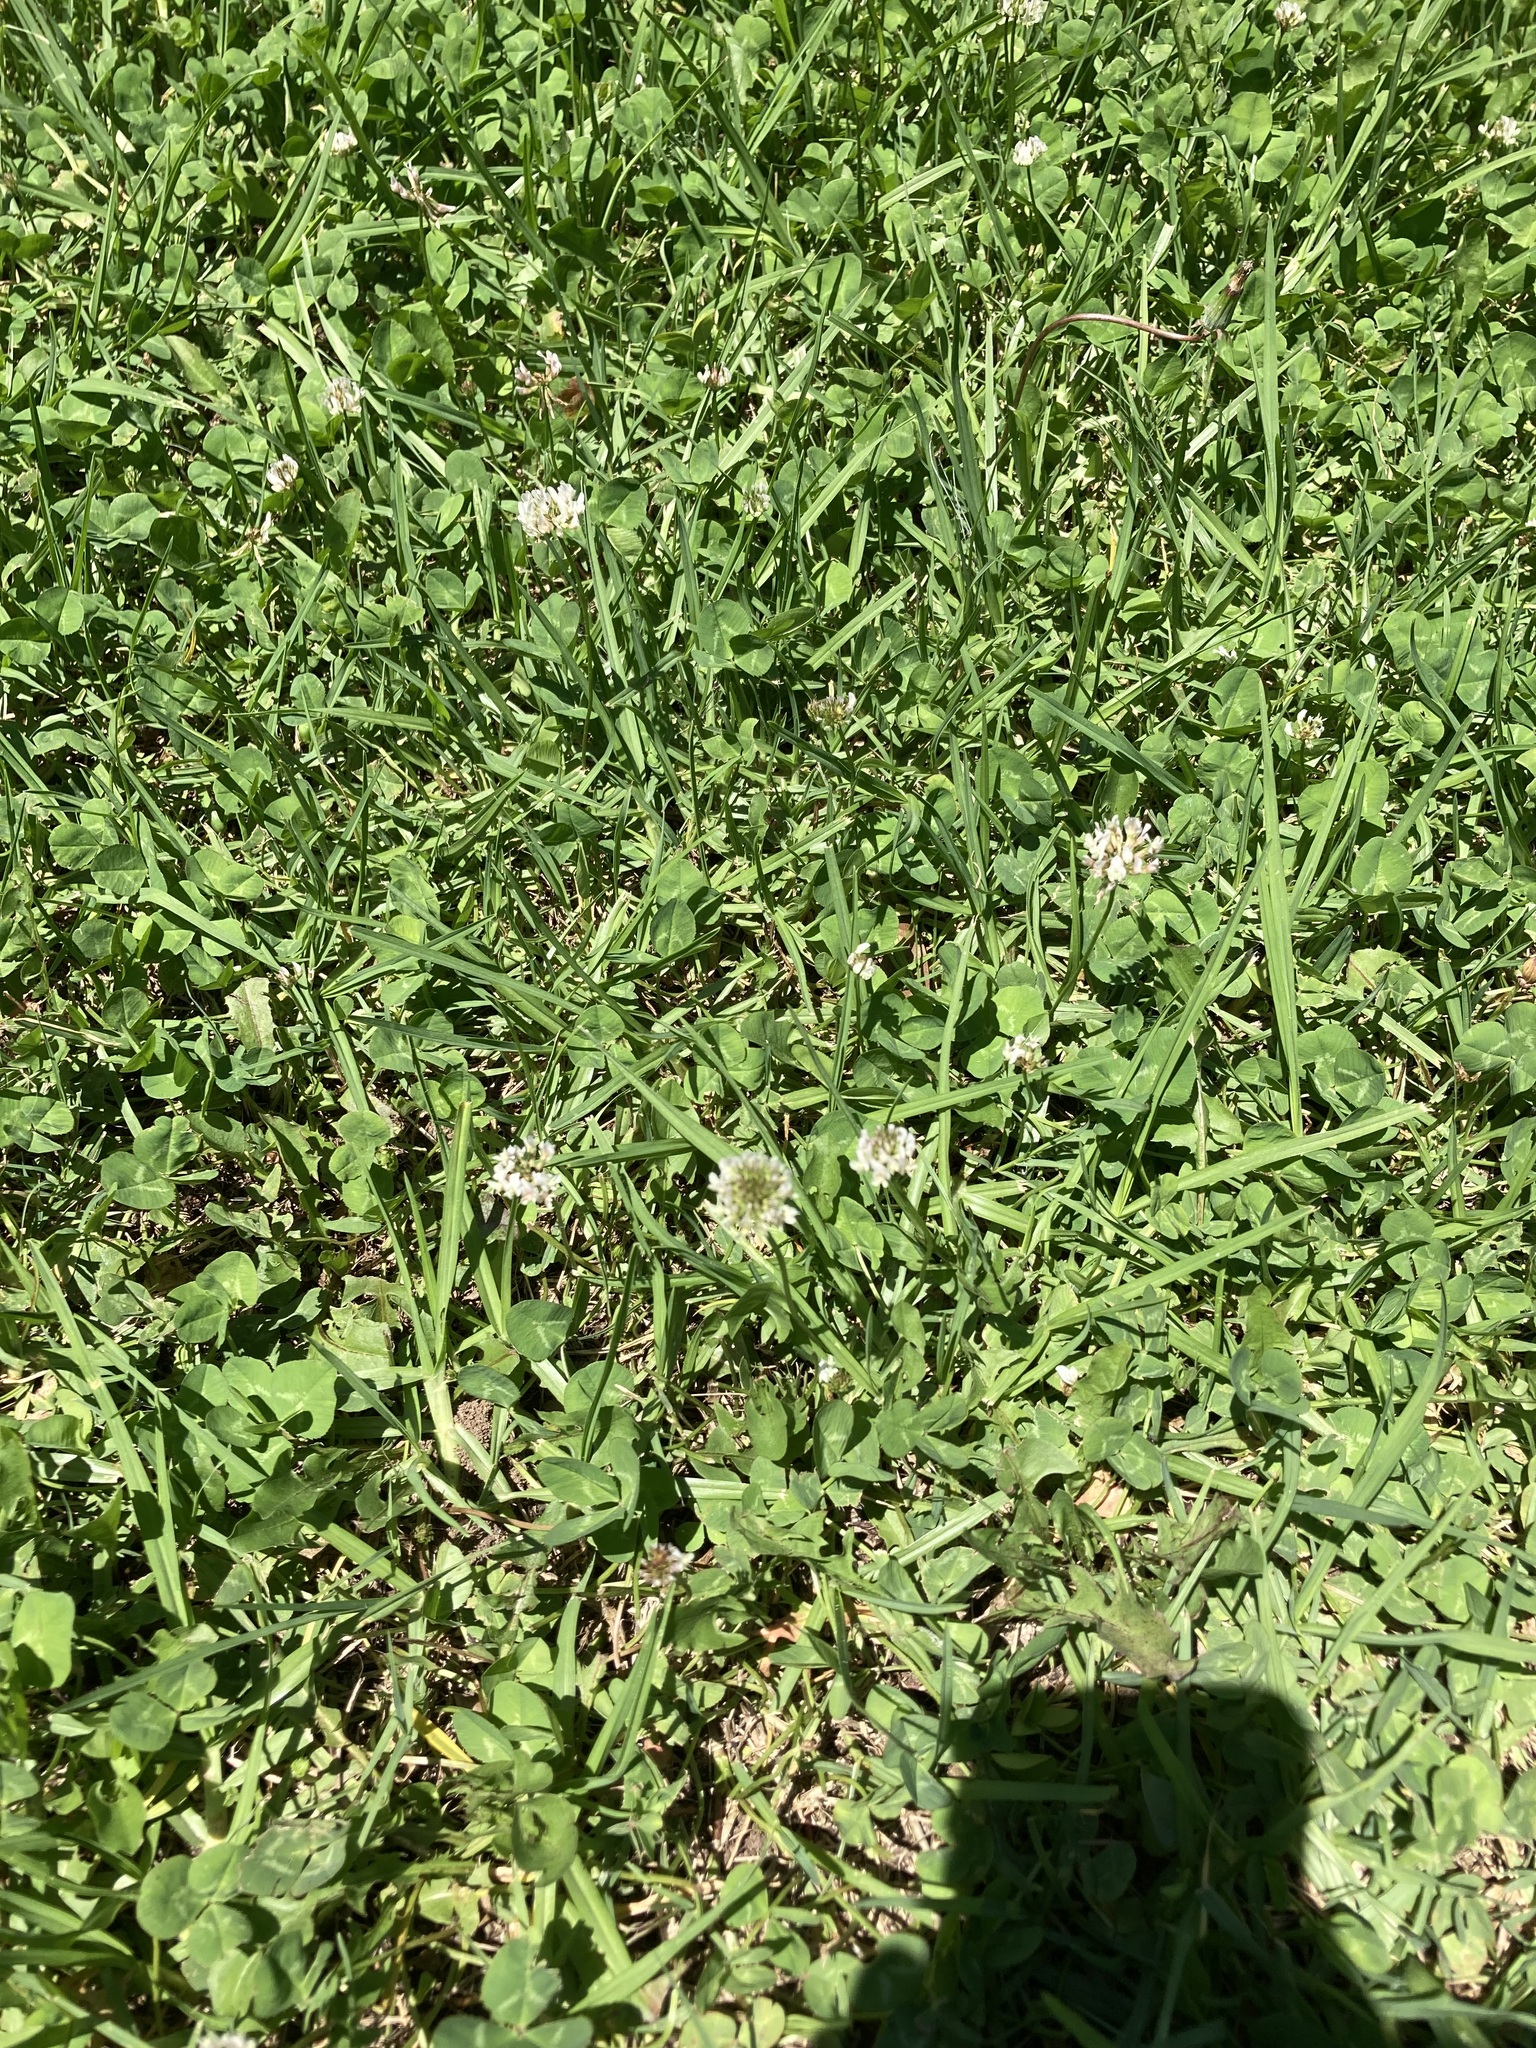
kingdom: Plantae
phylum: Tracheophyta
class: Magnoliopsida
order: Fabales
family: Fabaceae
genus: Trifolium
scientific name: Trifolium repens
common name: White clover
